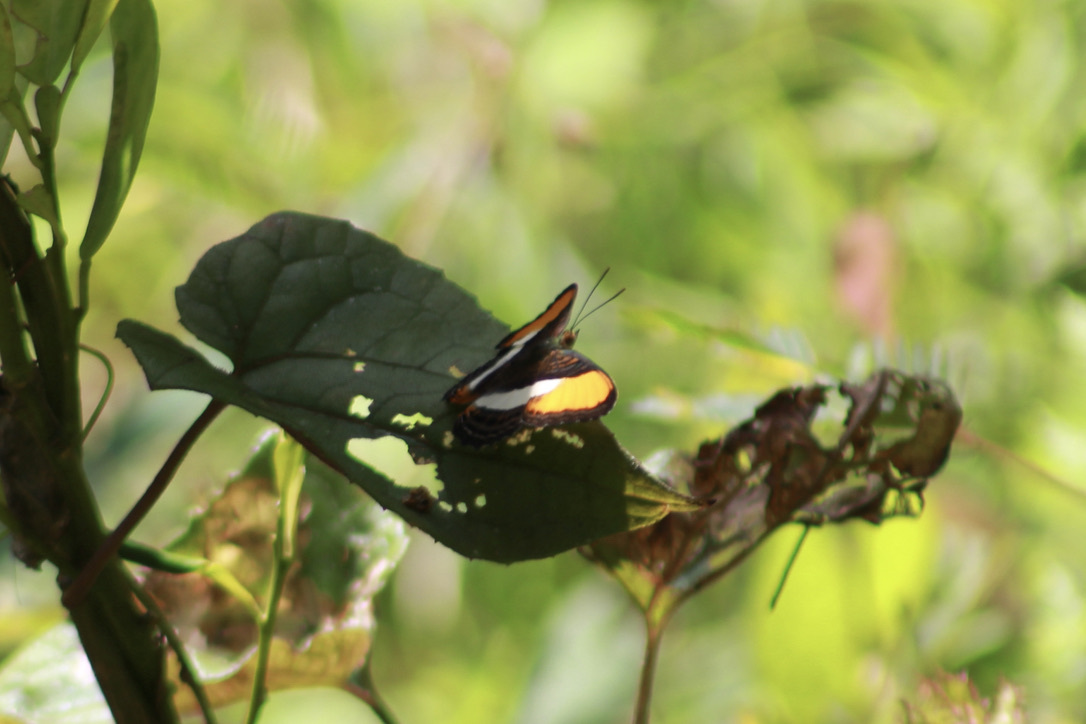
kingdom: Animalia
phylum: Arthropoda
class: Insecta
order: Lepidoptera
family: Nymphalidae
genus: Limenitis
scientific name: Limenitis cytherea
